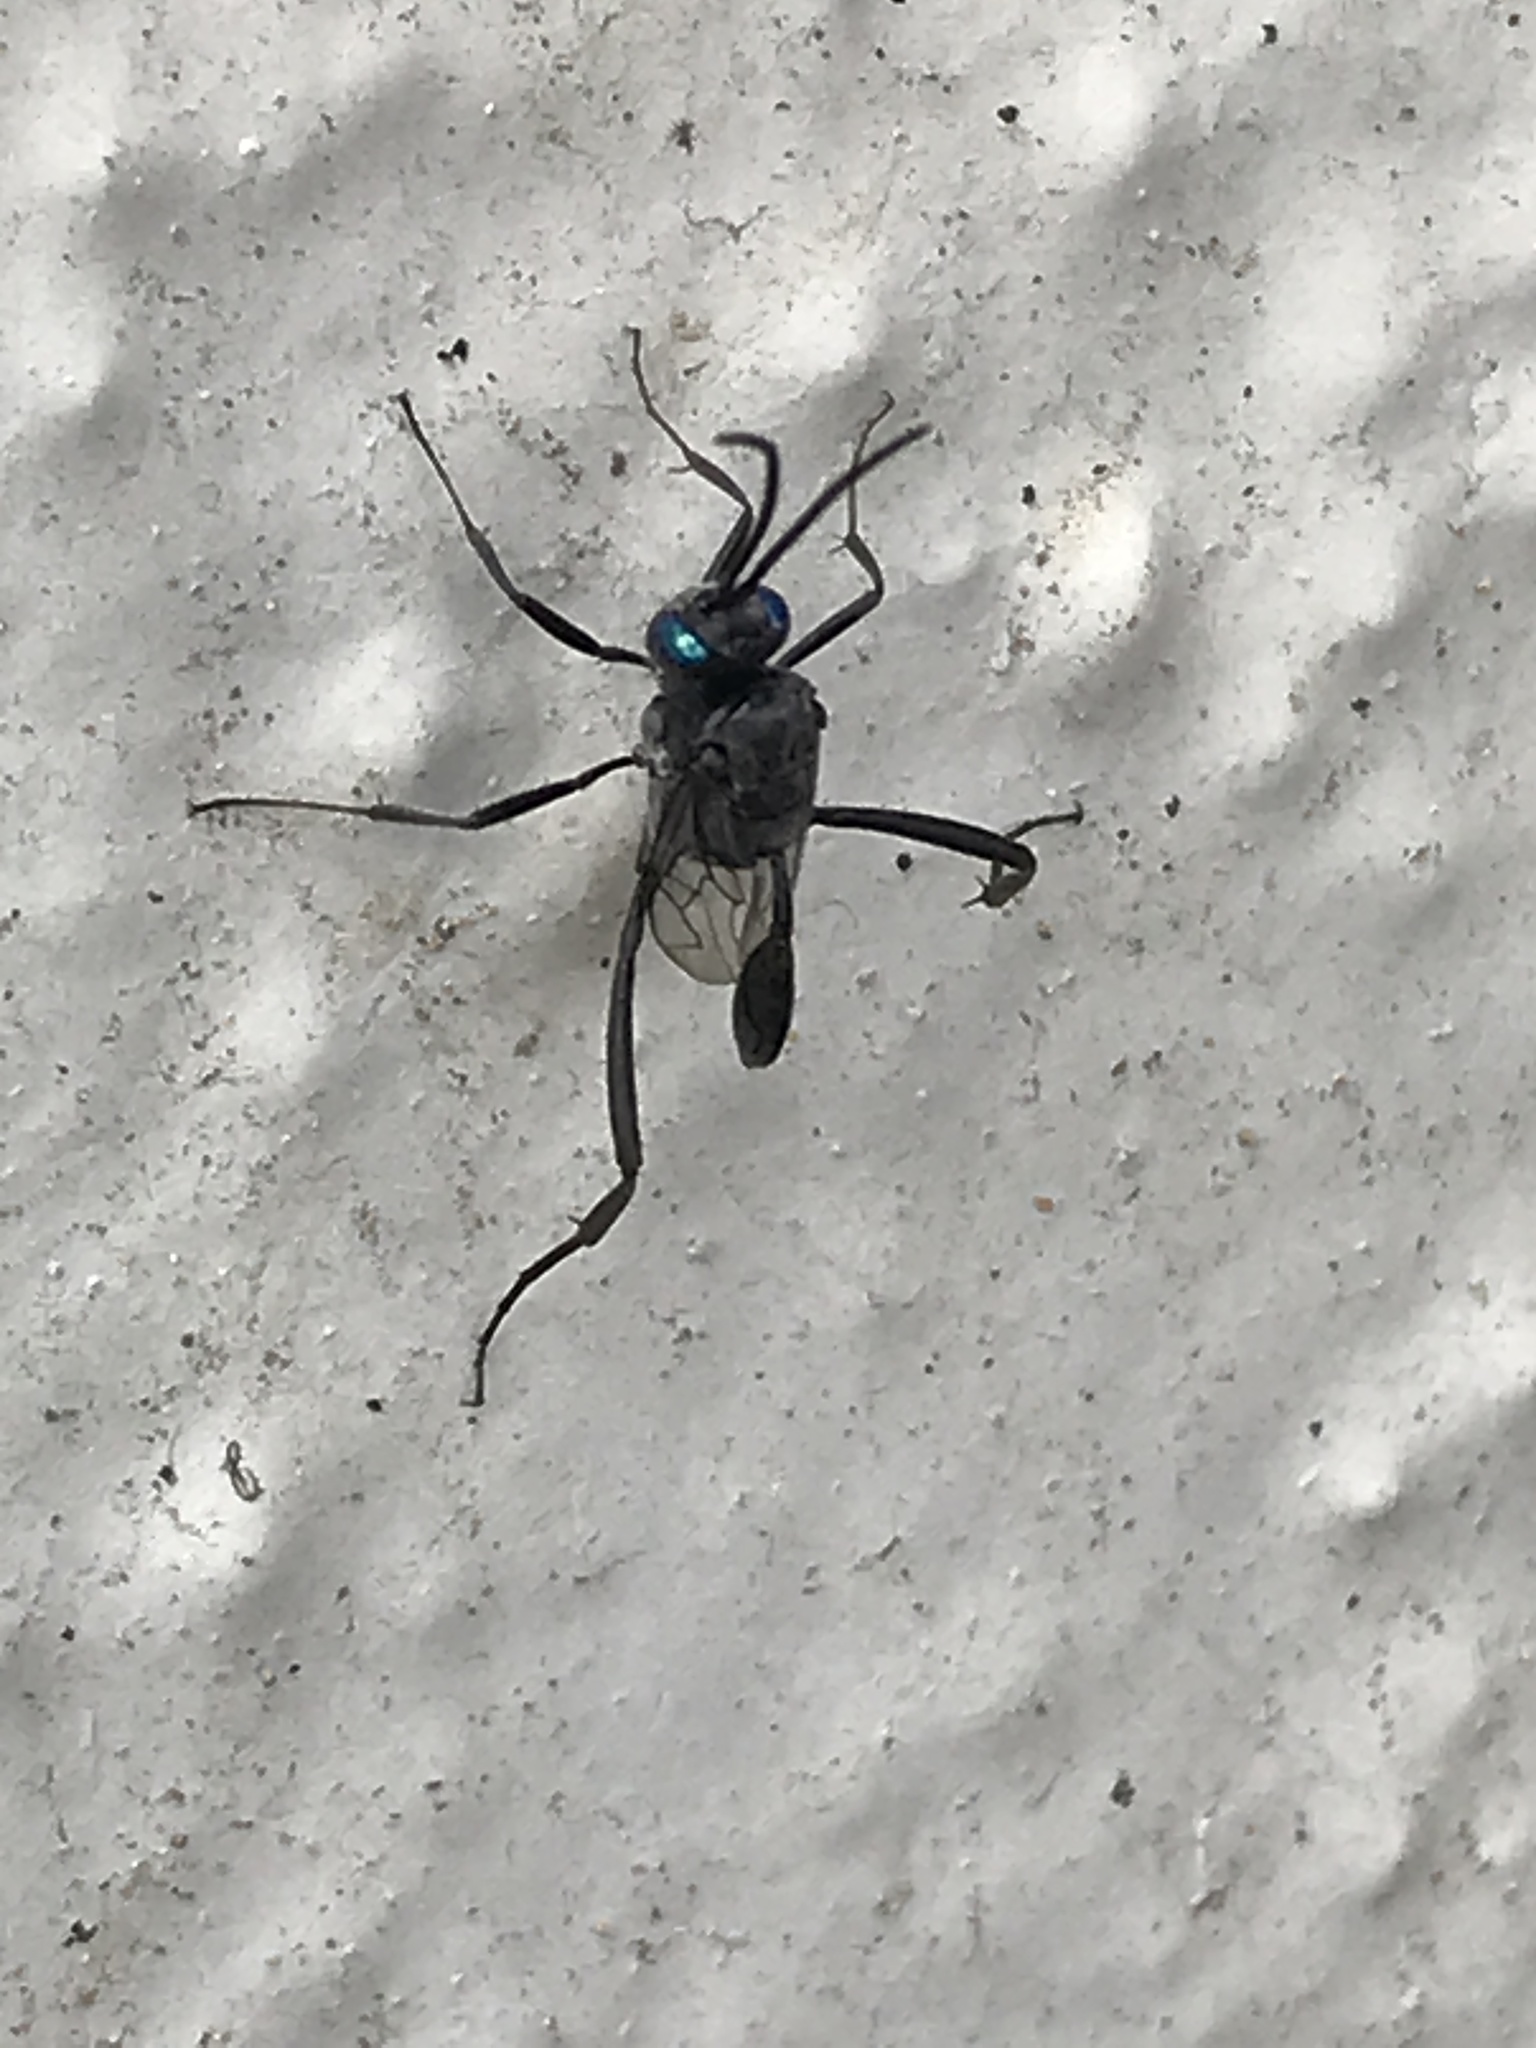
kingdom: Animalia
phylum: Arthropoda
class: Insecta
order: Hymenoptera
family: Evaniidae
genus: Evania
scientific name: Evania appendigaster
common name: Ensign wasp
